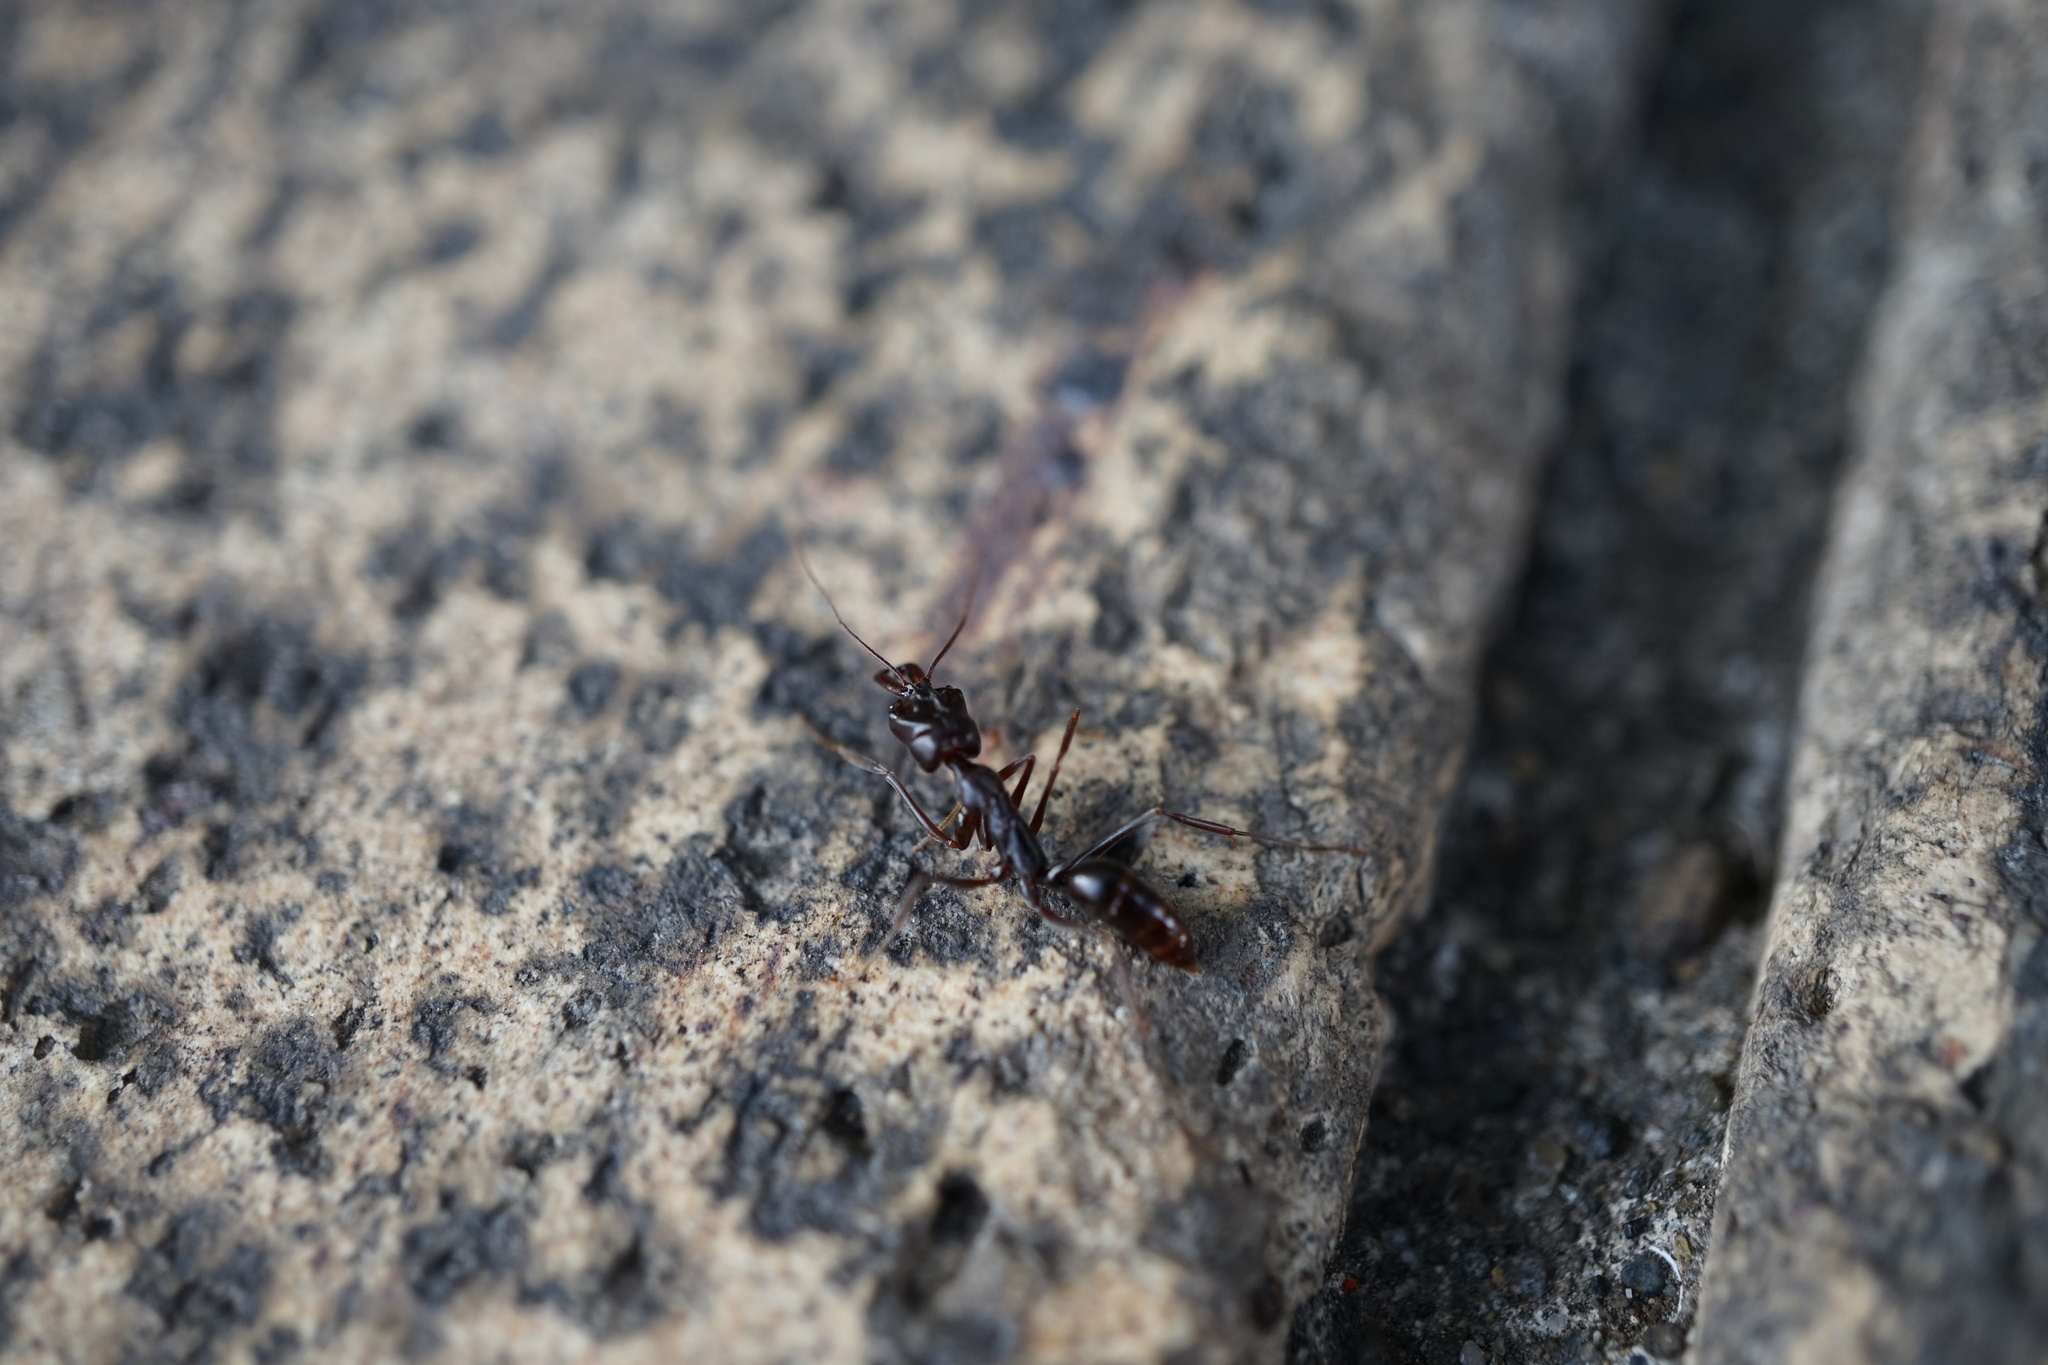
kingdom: Animalia
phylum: Arthropoda
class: Insecta
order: Hymenoptera
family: Formicidae
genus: Odontomachus
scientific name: Odontomachus monticola
